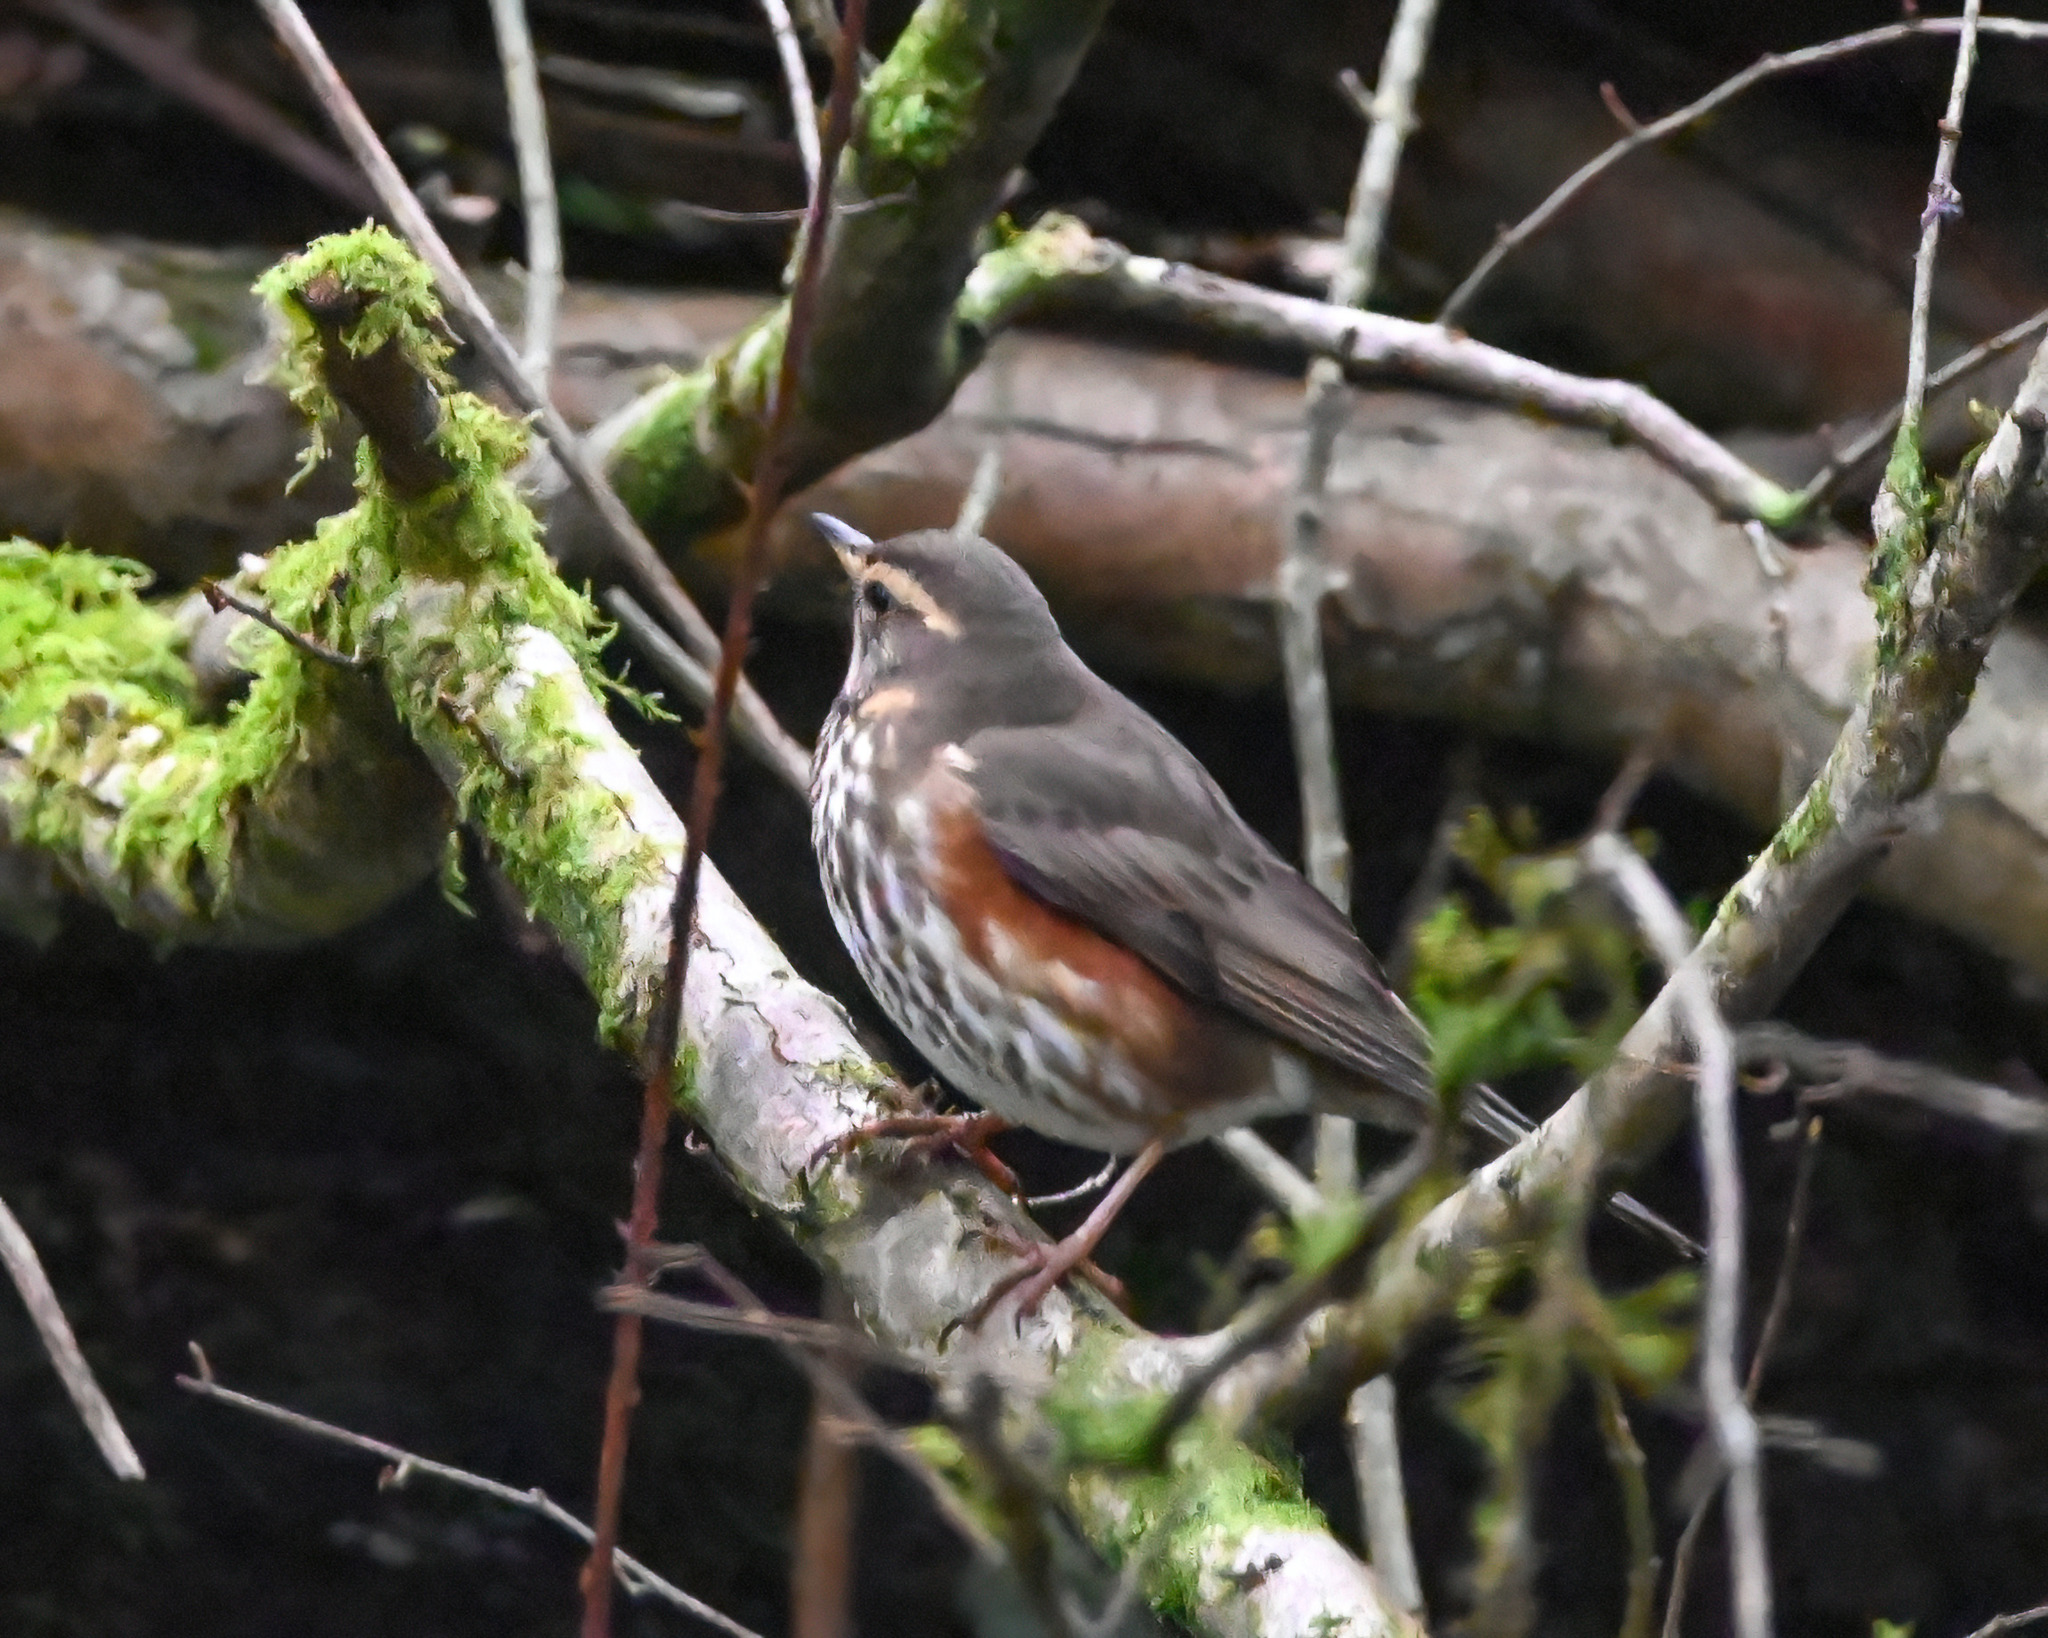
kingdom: Animalia
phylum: Chordata
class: Aves
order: Passeriformes
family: Turdidae
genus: Turdus
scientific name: Turdus iliacus
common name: Redwing
